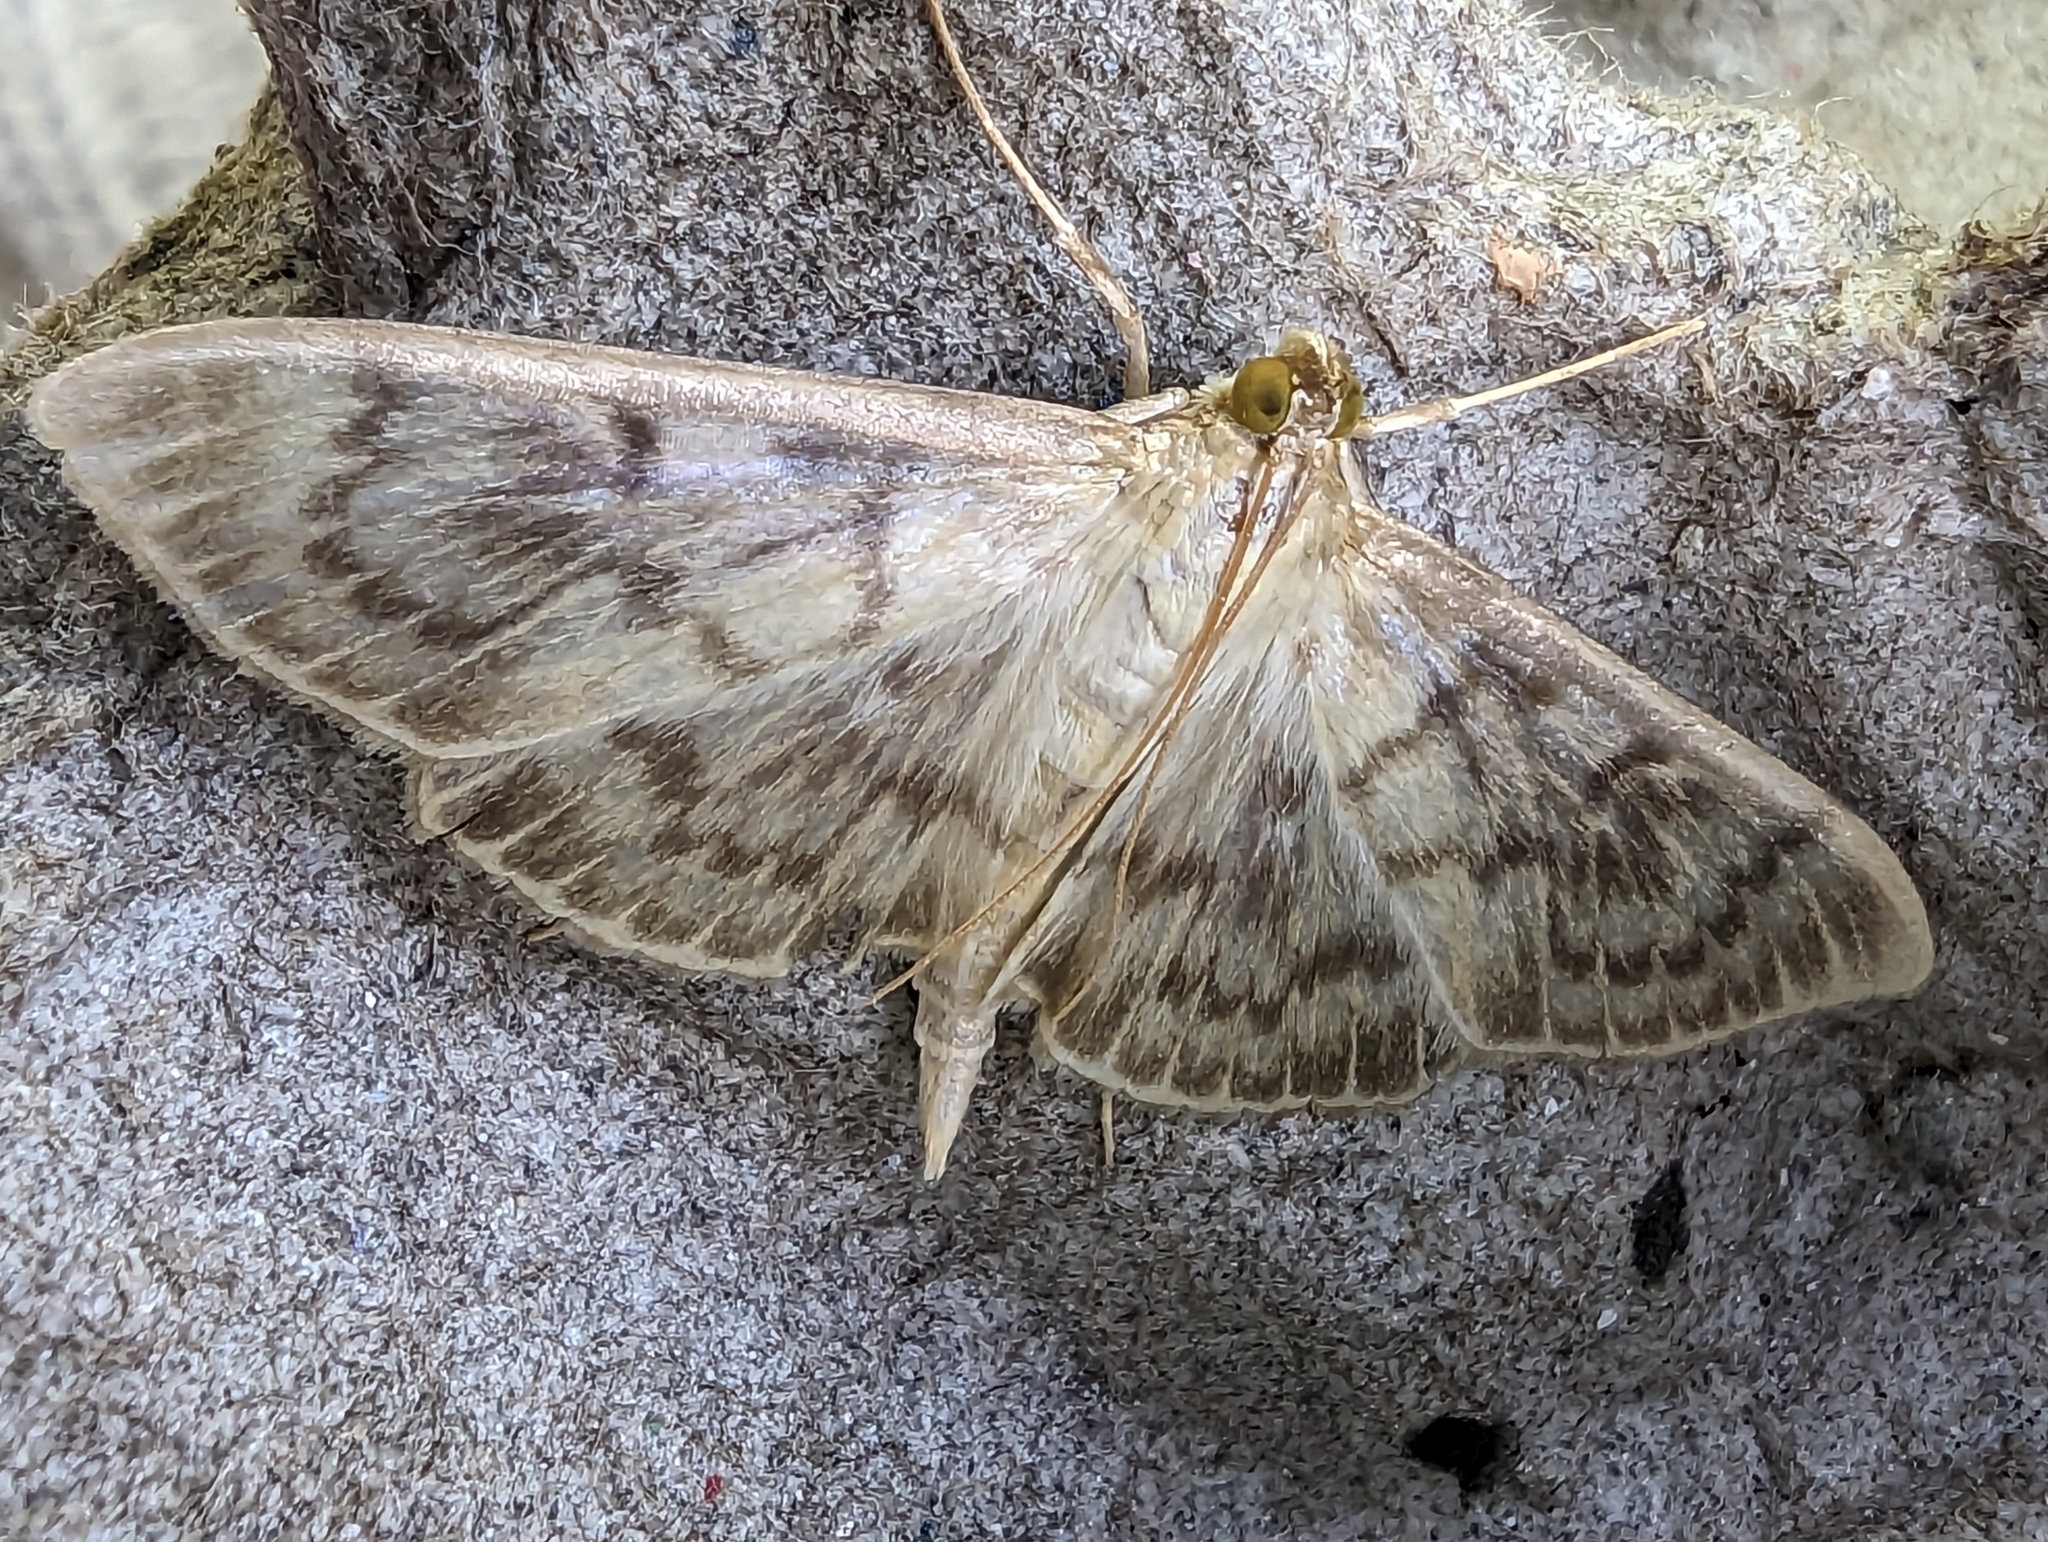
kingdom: Animalia
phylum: Arthropoda
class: Insecta
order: Lepidoptera
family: Crambidae
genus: Patania
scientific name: Patania ruralis
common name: Mother of pearl
